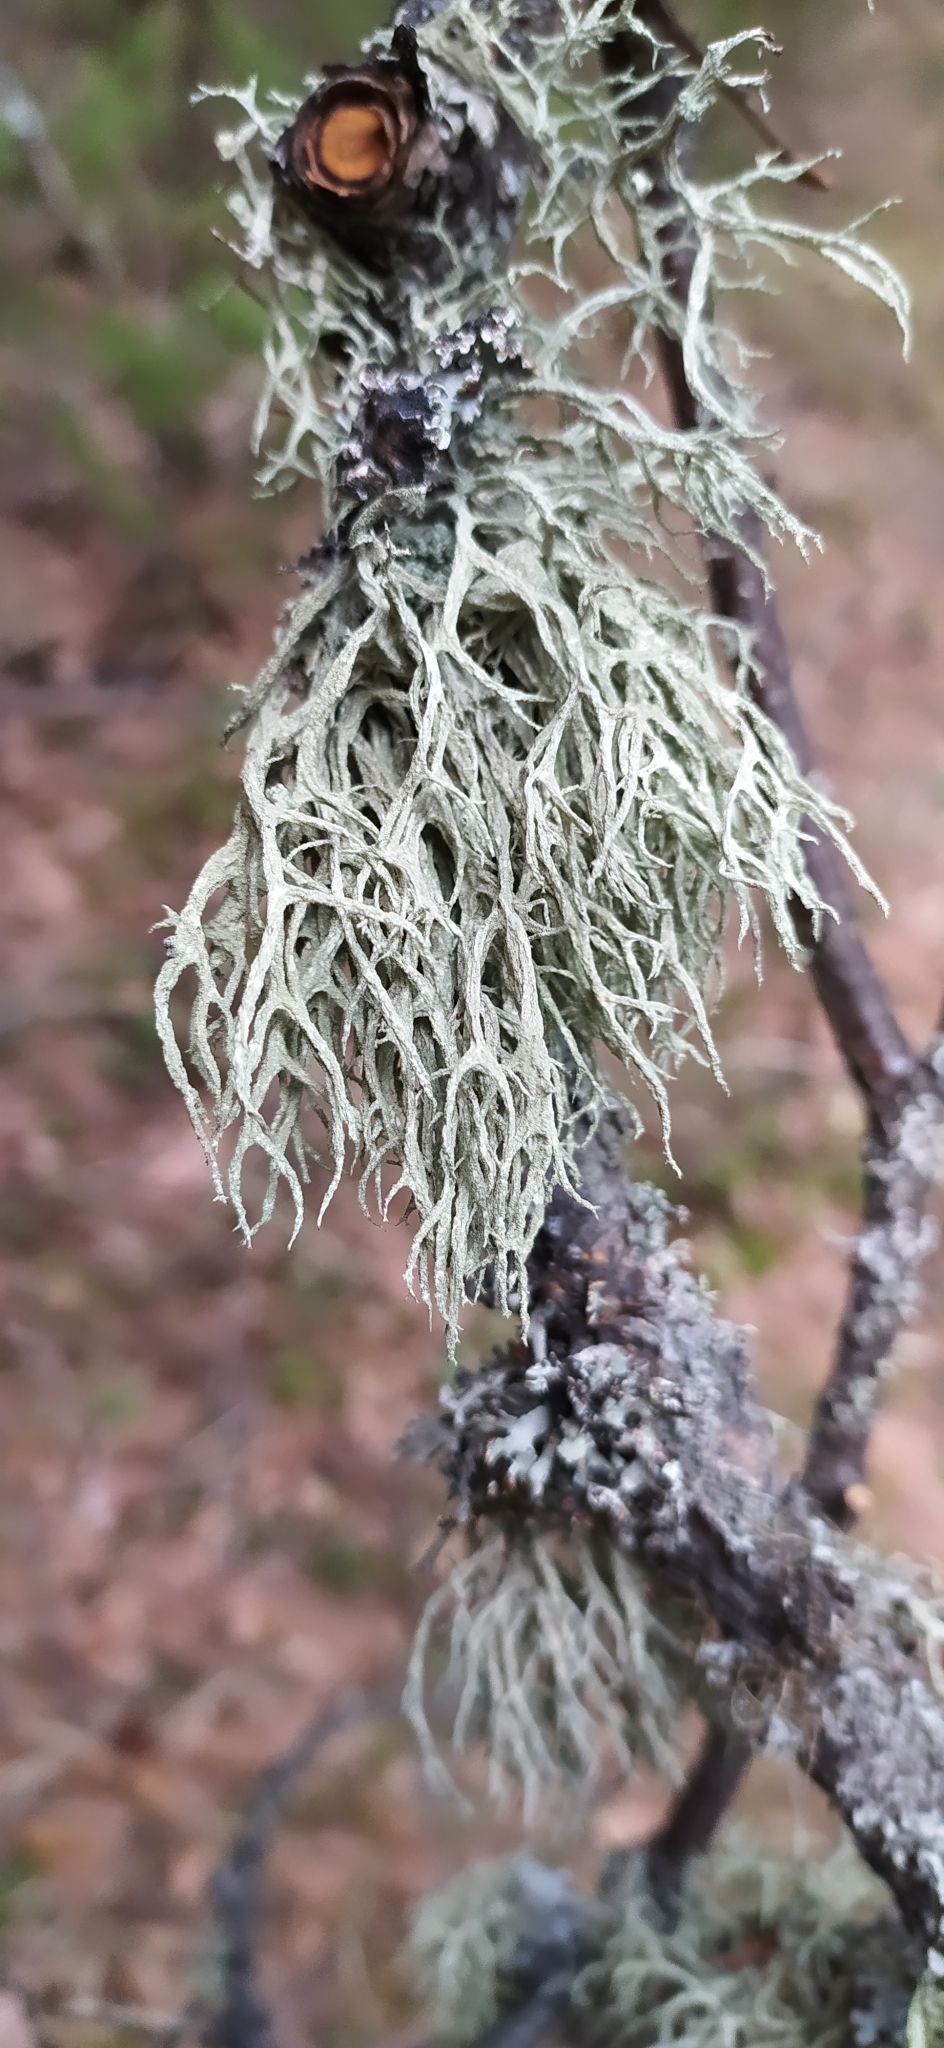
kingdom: Fungi
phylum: Ascomycota
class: Lecanoromycetes
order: Lecanorales
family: Parmeliaceae
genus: Evernia
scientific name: Evernia mesomorpha
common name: Boreal oak moss lichen
